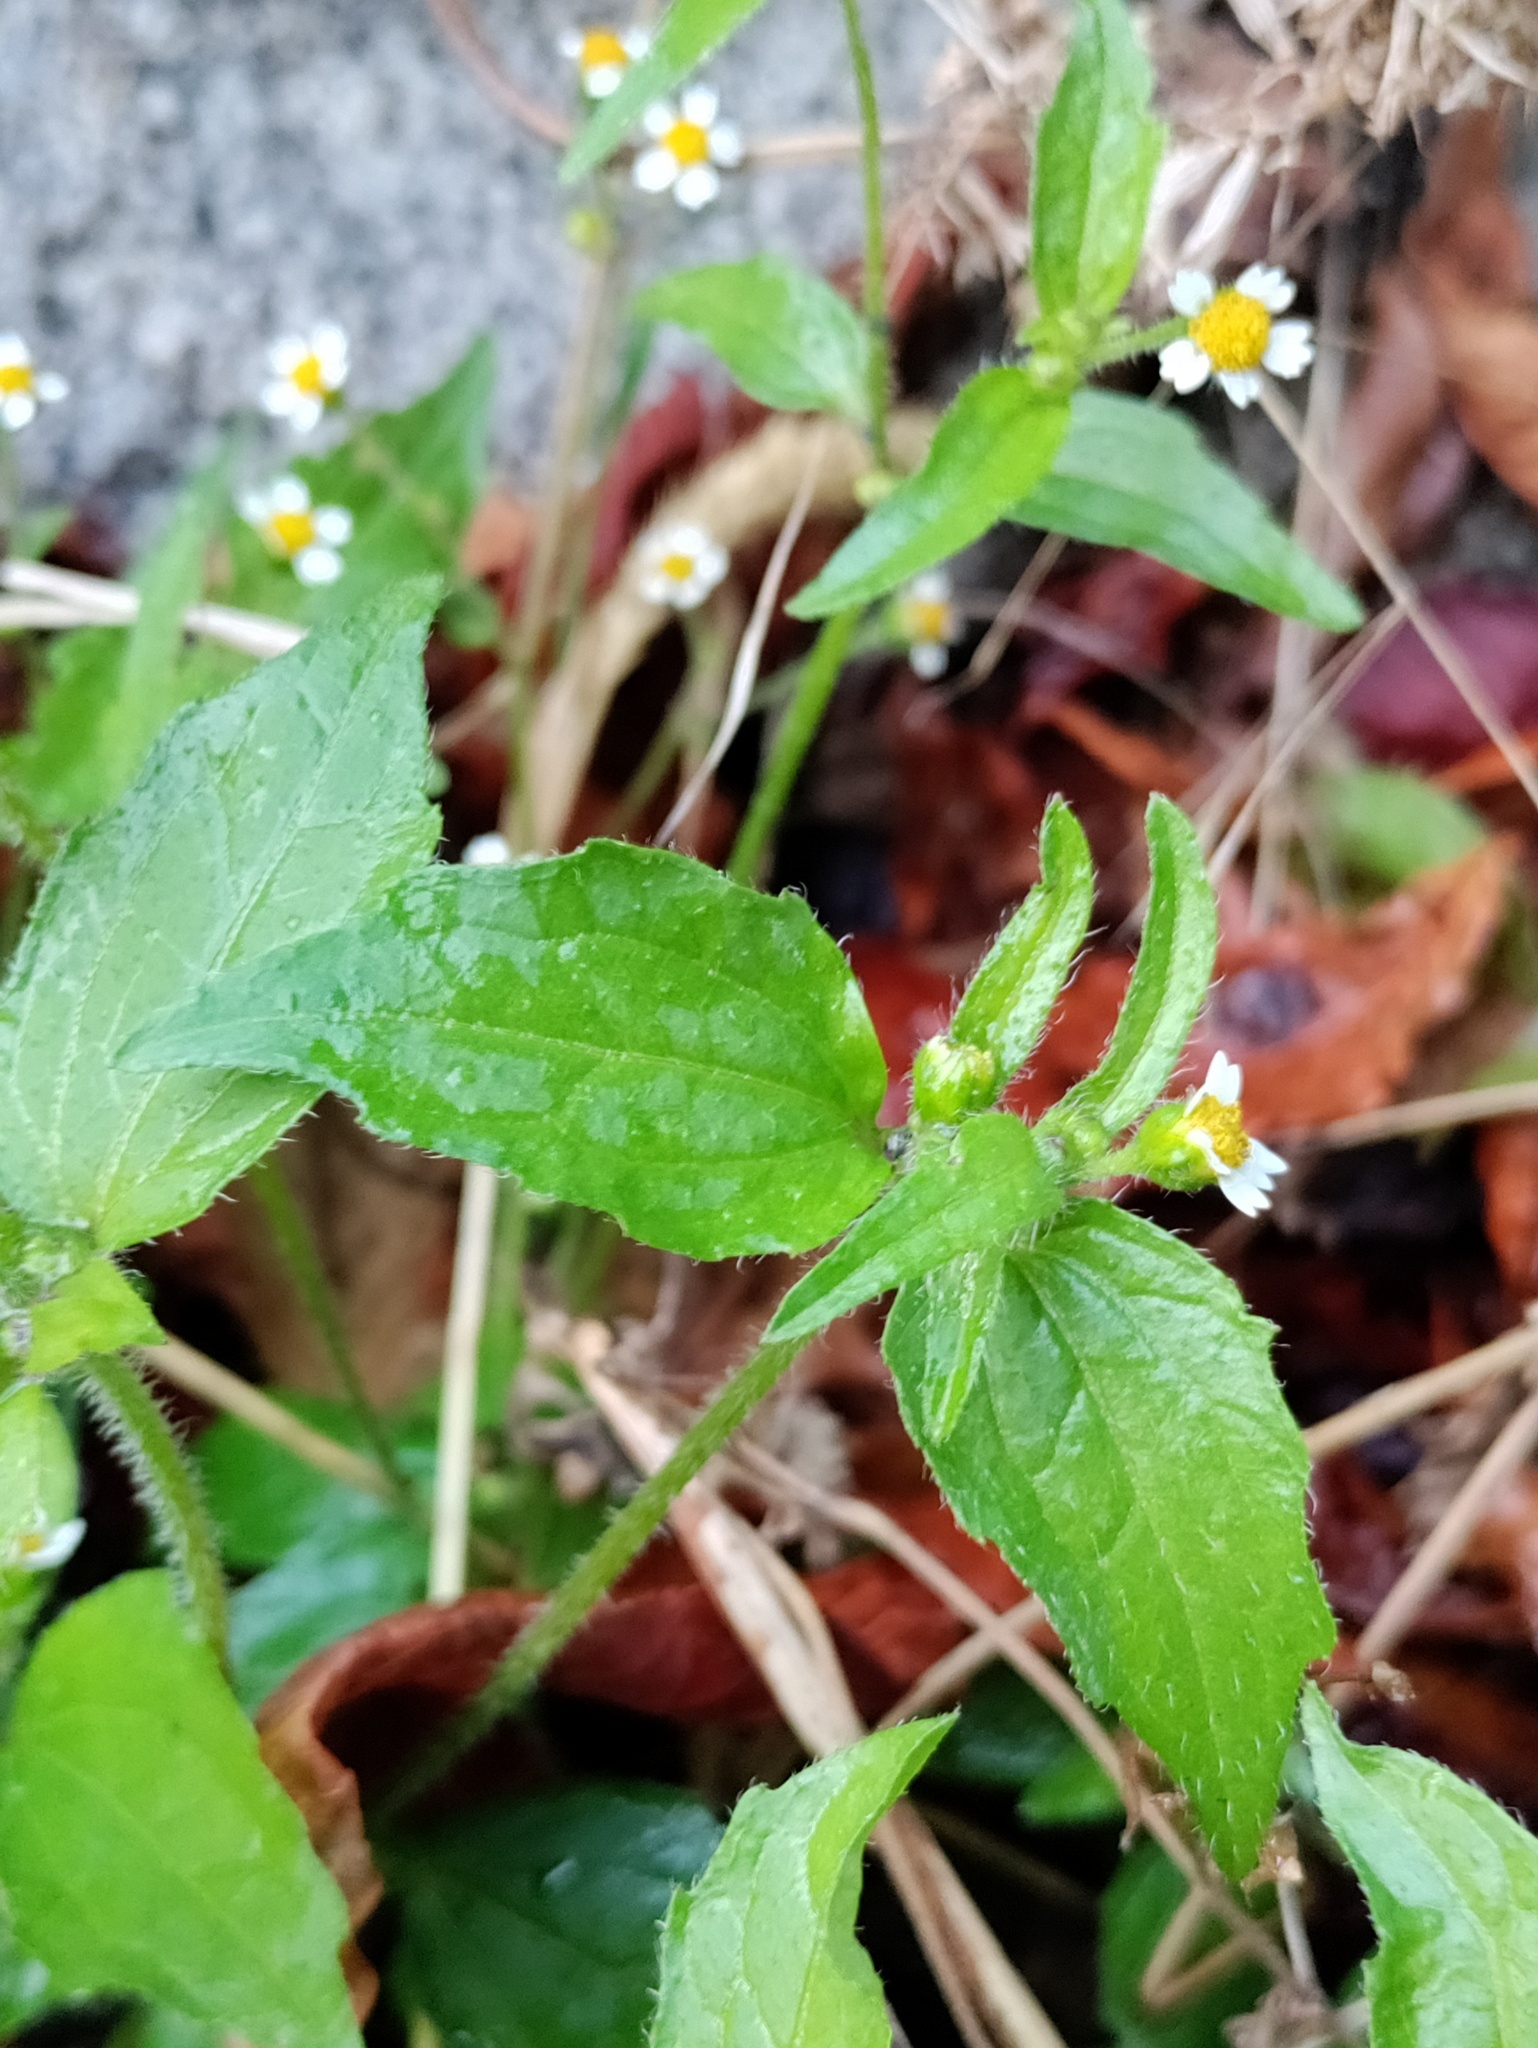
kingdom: Plantae
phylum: Tracheophyta
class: Magnoliopsida
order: Asterales
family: Asteraceae
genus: Galinsoga
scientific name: Galinsoga quadriradiata
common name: Shaggy soldier
